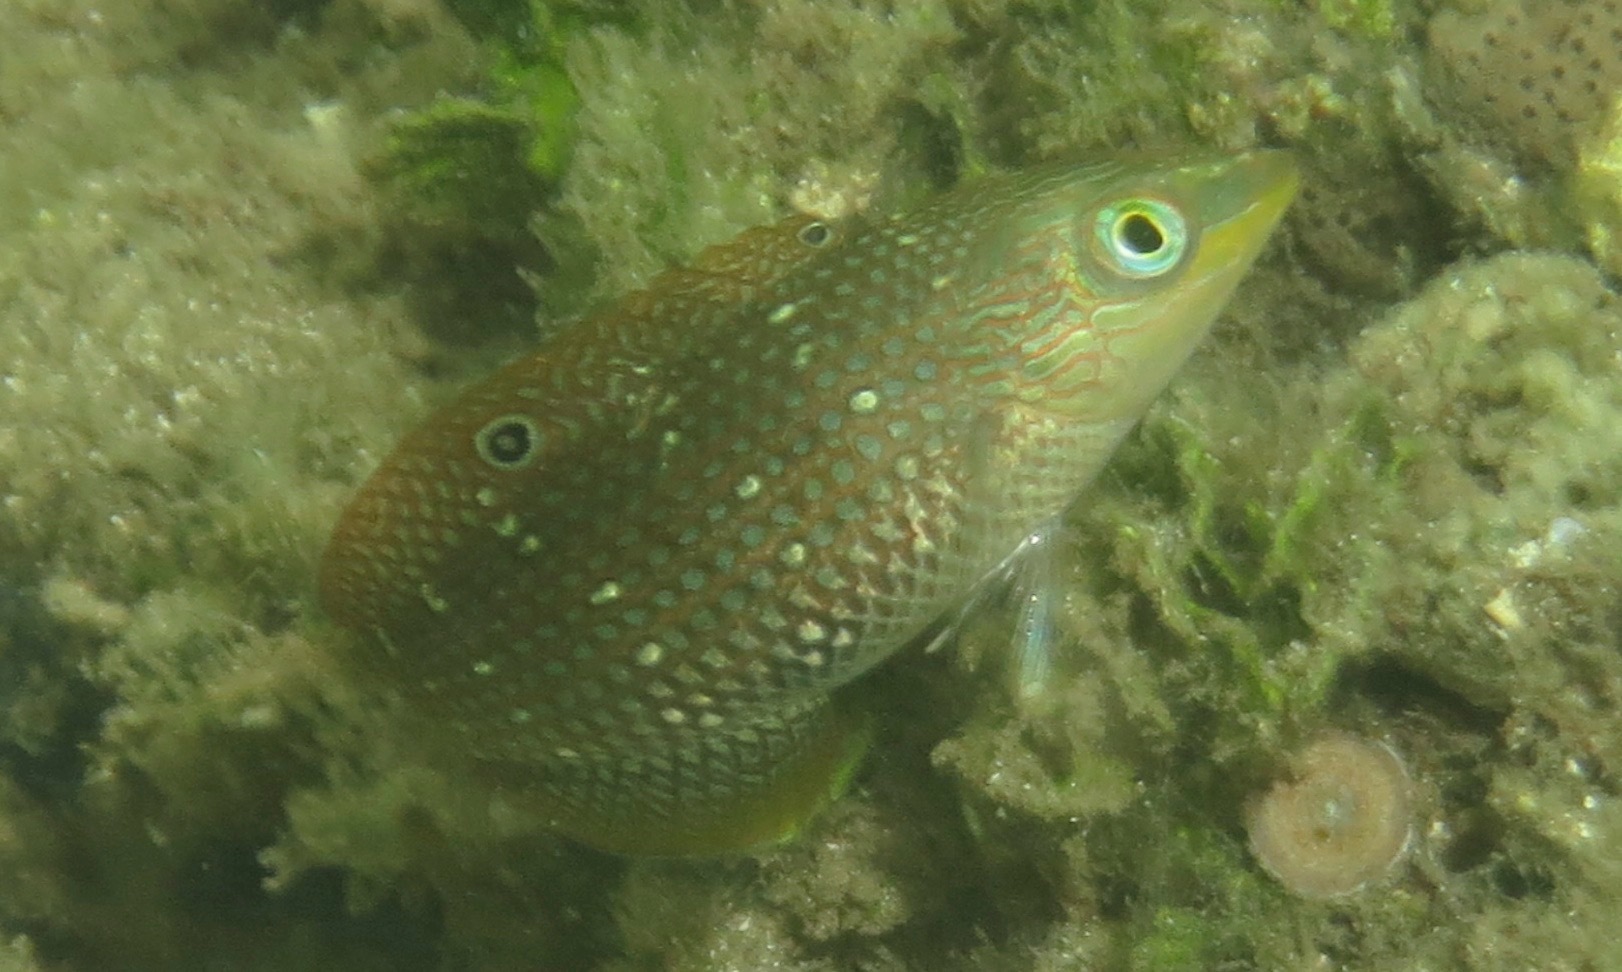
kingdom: Animalia
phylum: Chordata
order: Perciformes
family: Labridae
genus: Halichoeres
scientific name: Halichoeres argus
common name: Argus wrasse
